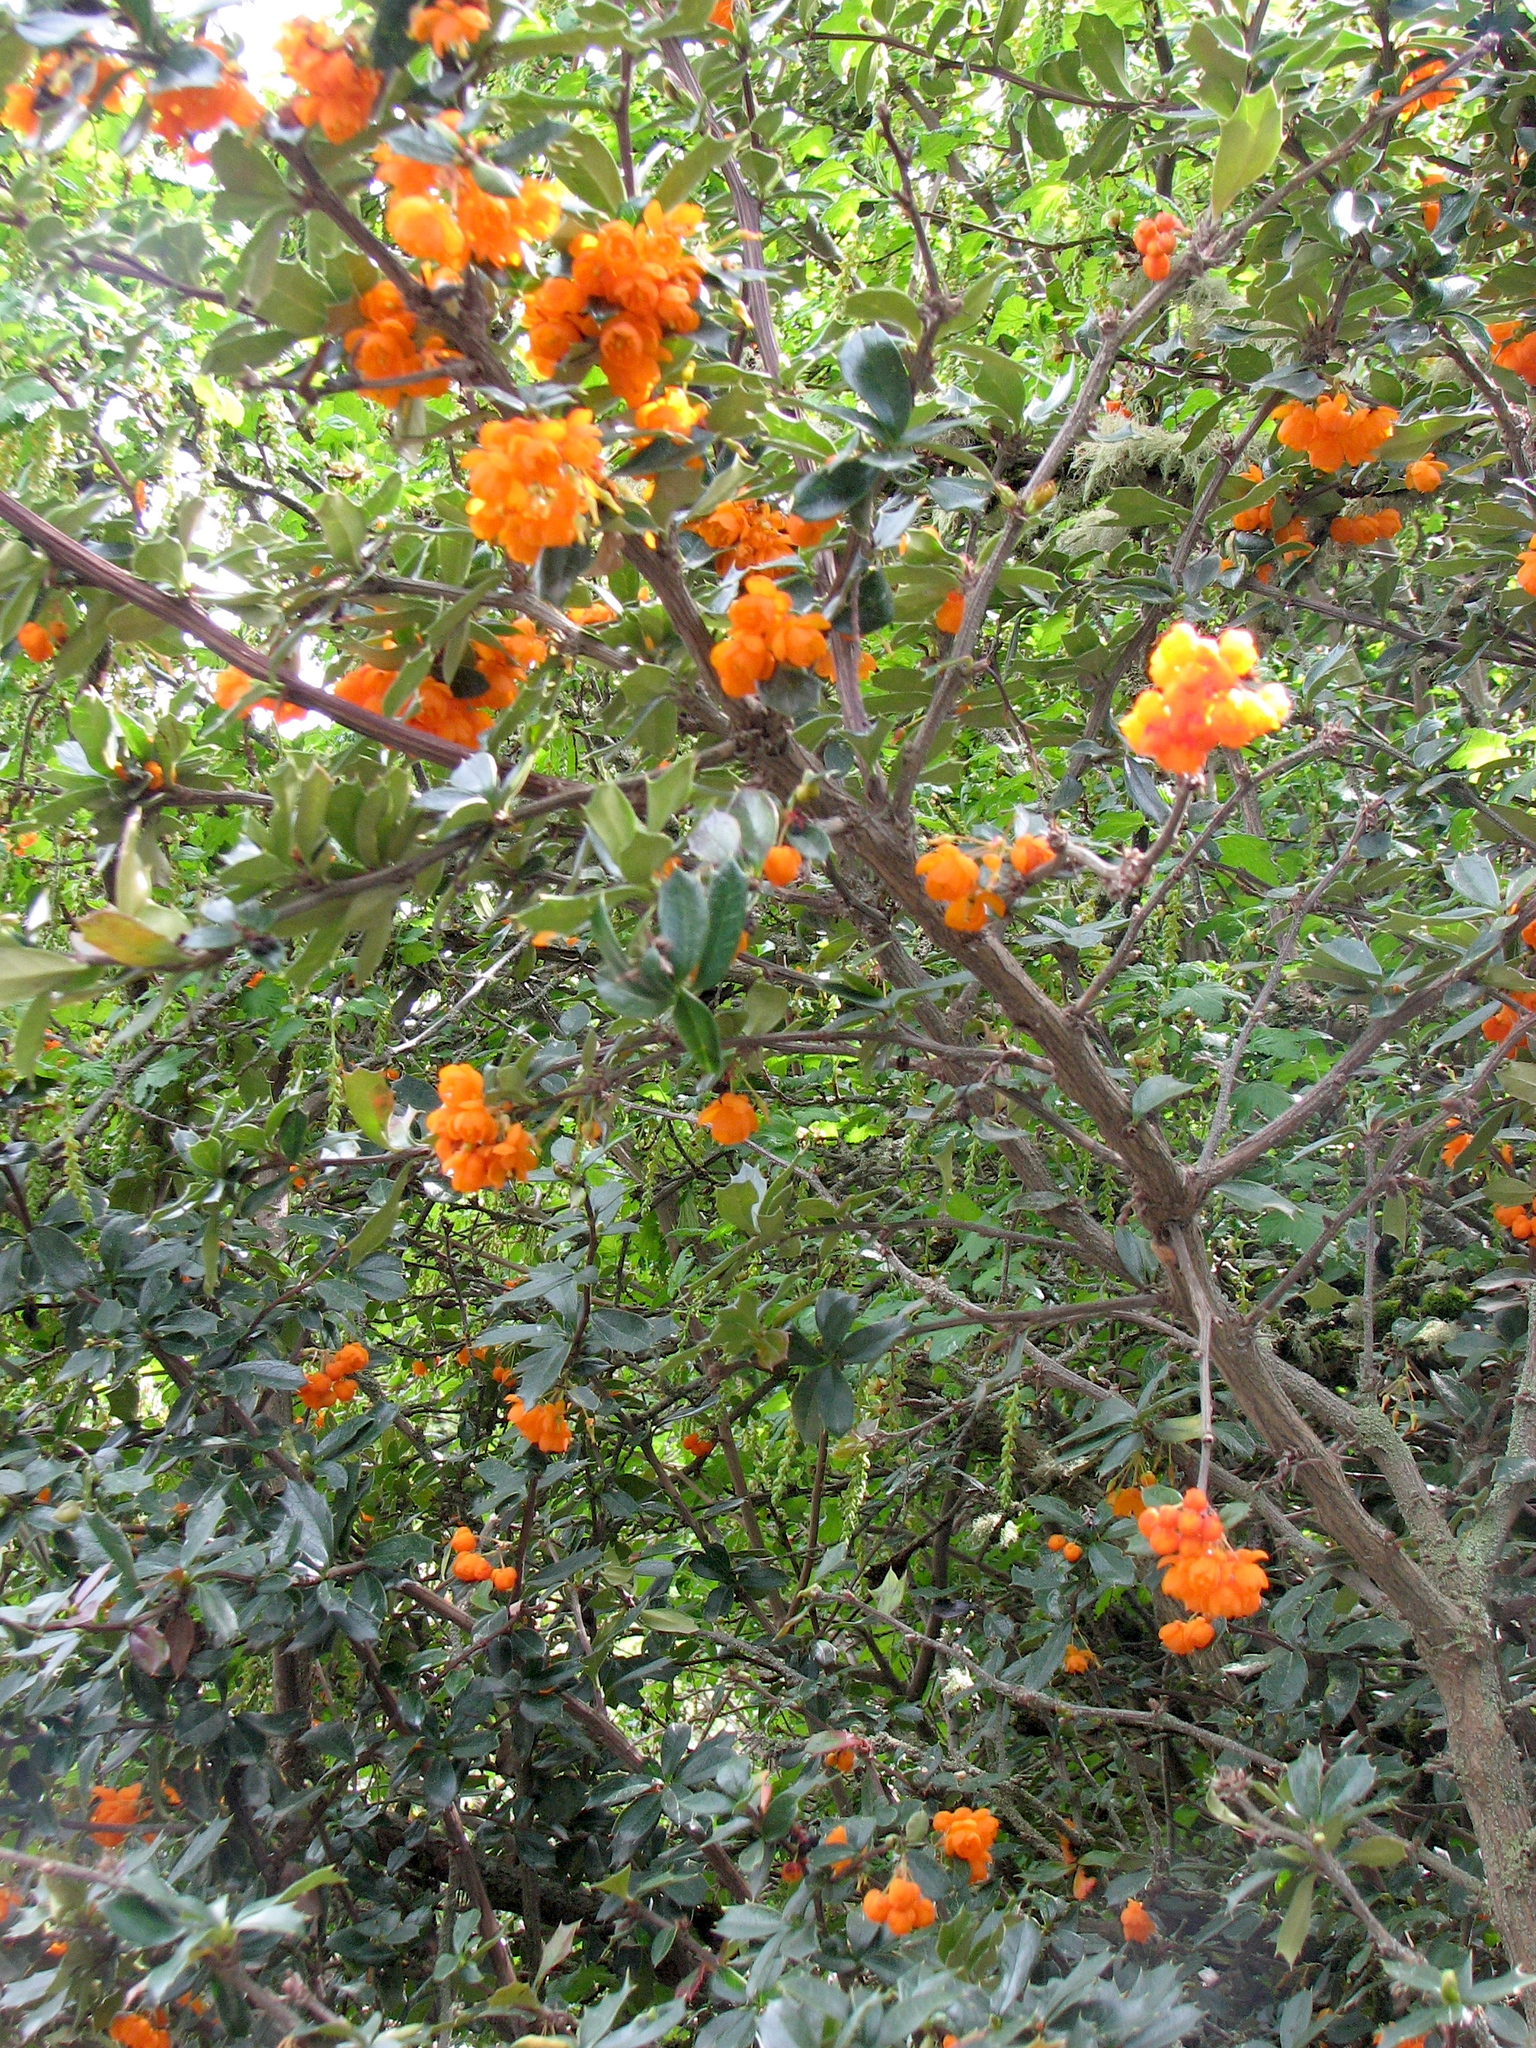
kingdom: Plantae
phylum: Tracheophyta
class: Magnoliopsida
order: Ranunculales
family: Berberidaceae
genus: Berberis
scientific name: Berberis ilicifolia
